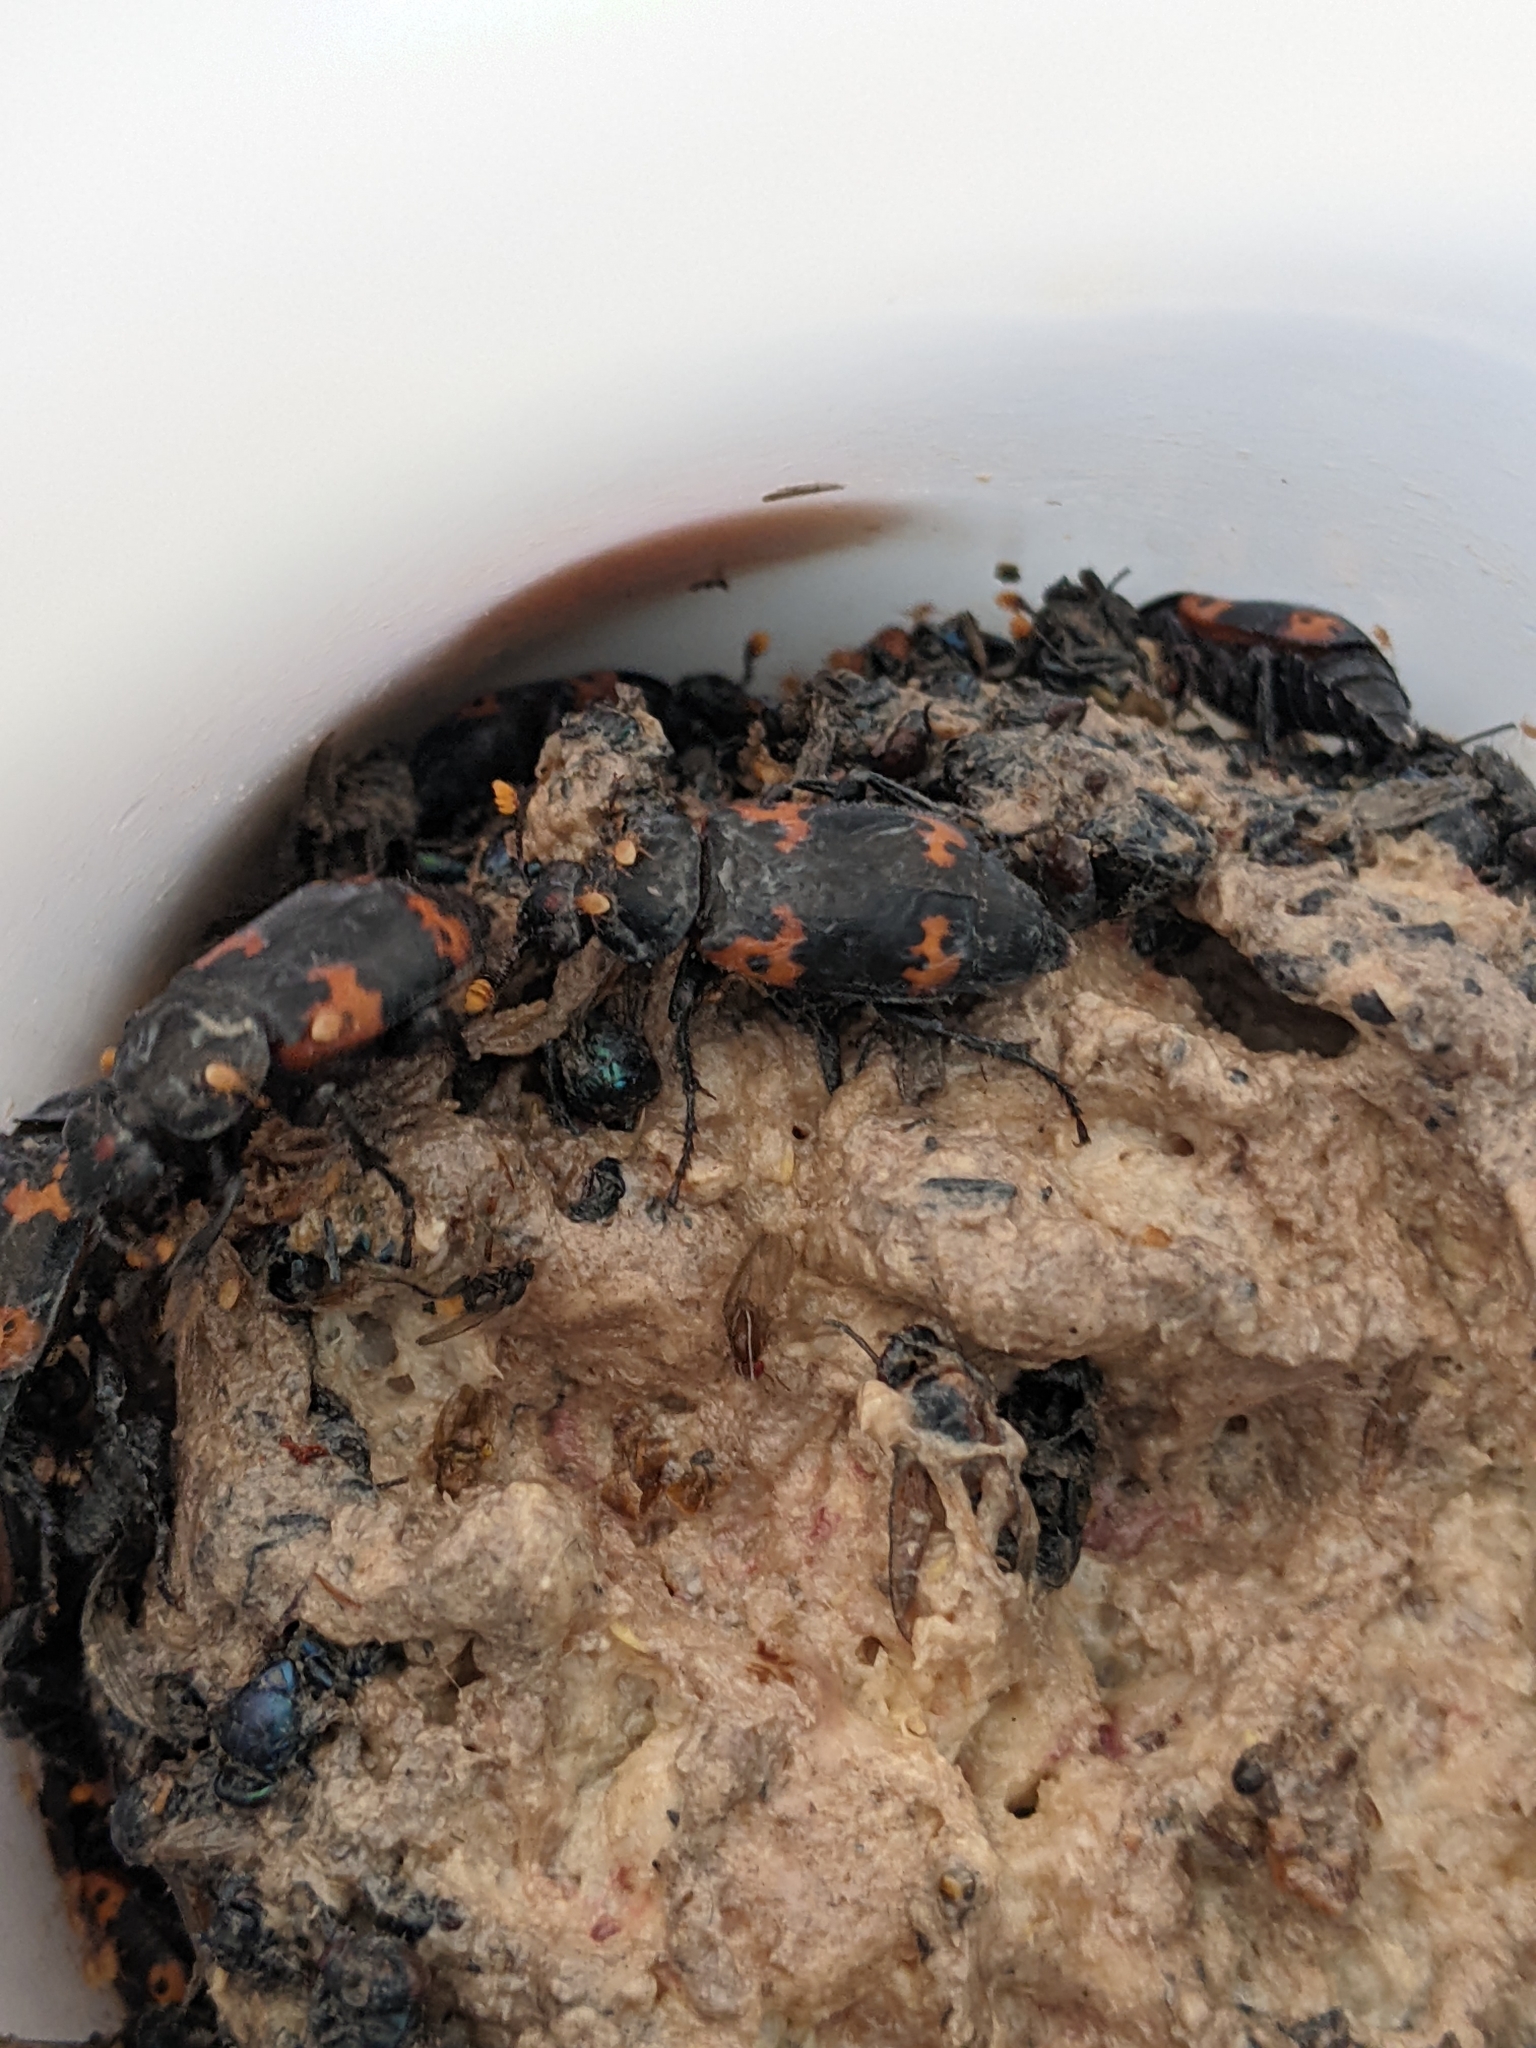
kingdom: Animalia
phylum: Arthropoda
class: Insecta
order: Coleoptera
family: Staphylinidae
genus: Nicrophorus
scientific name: Nicrophorus nepalensis
